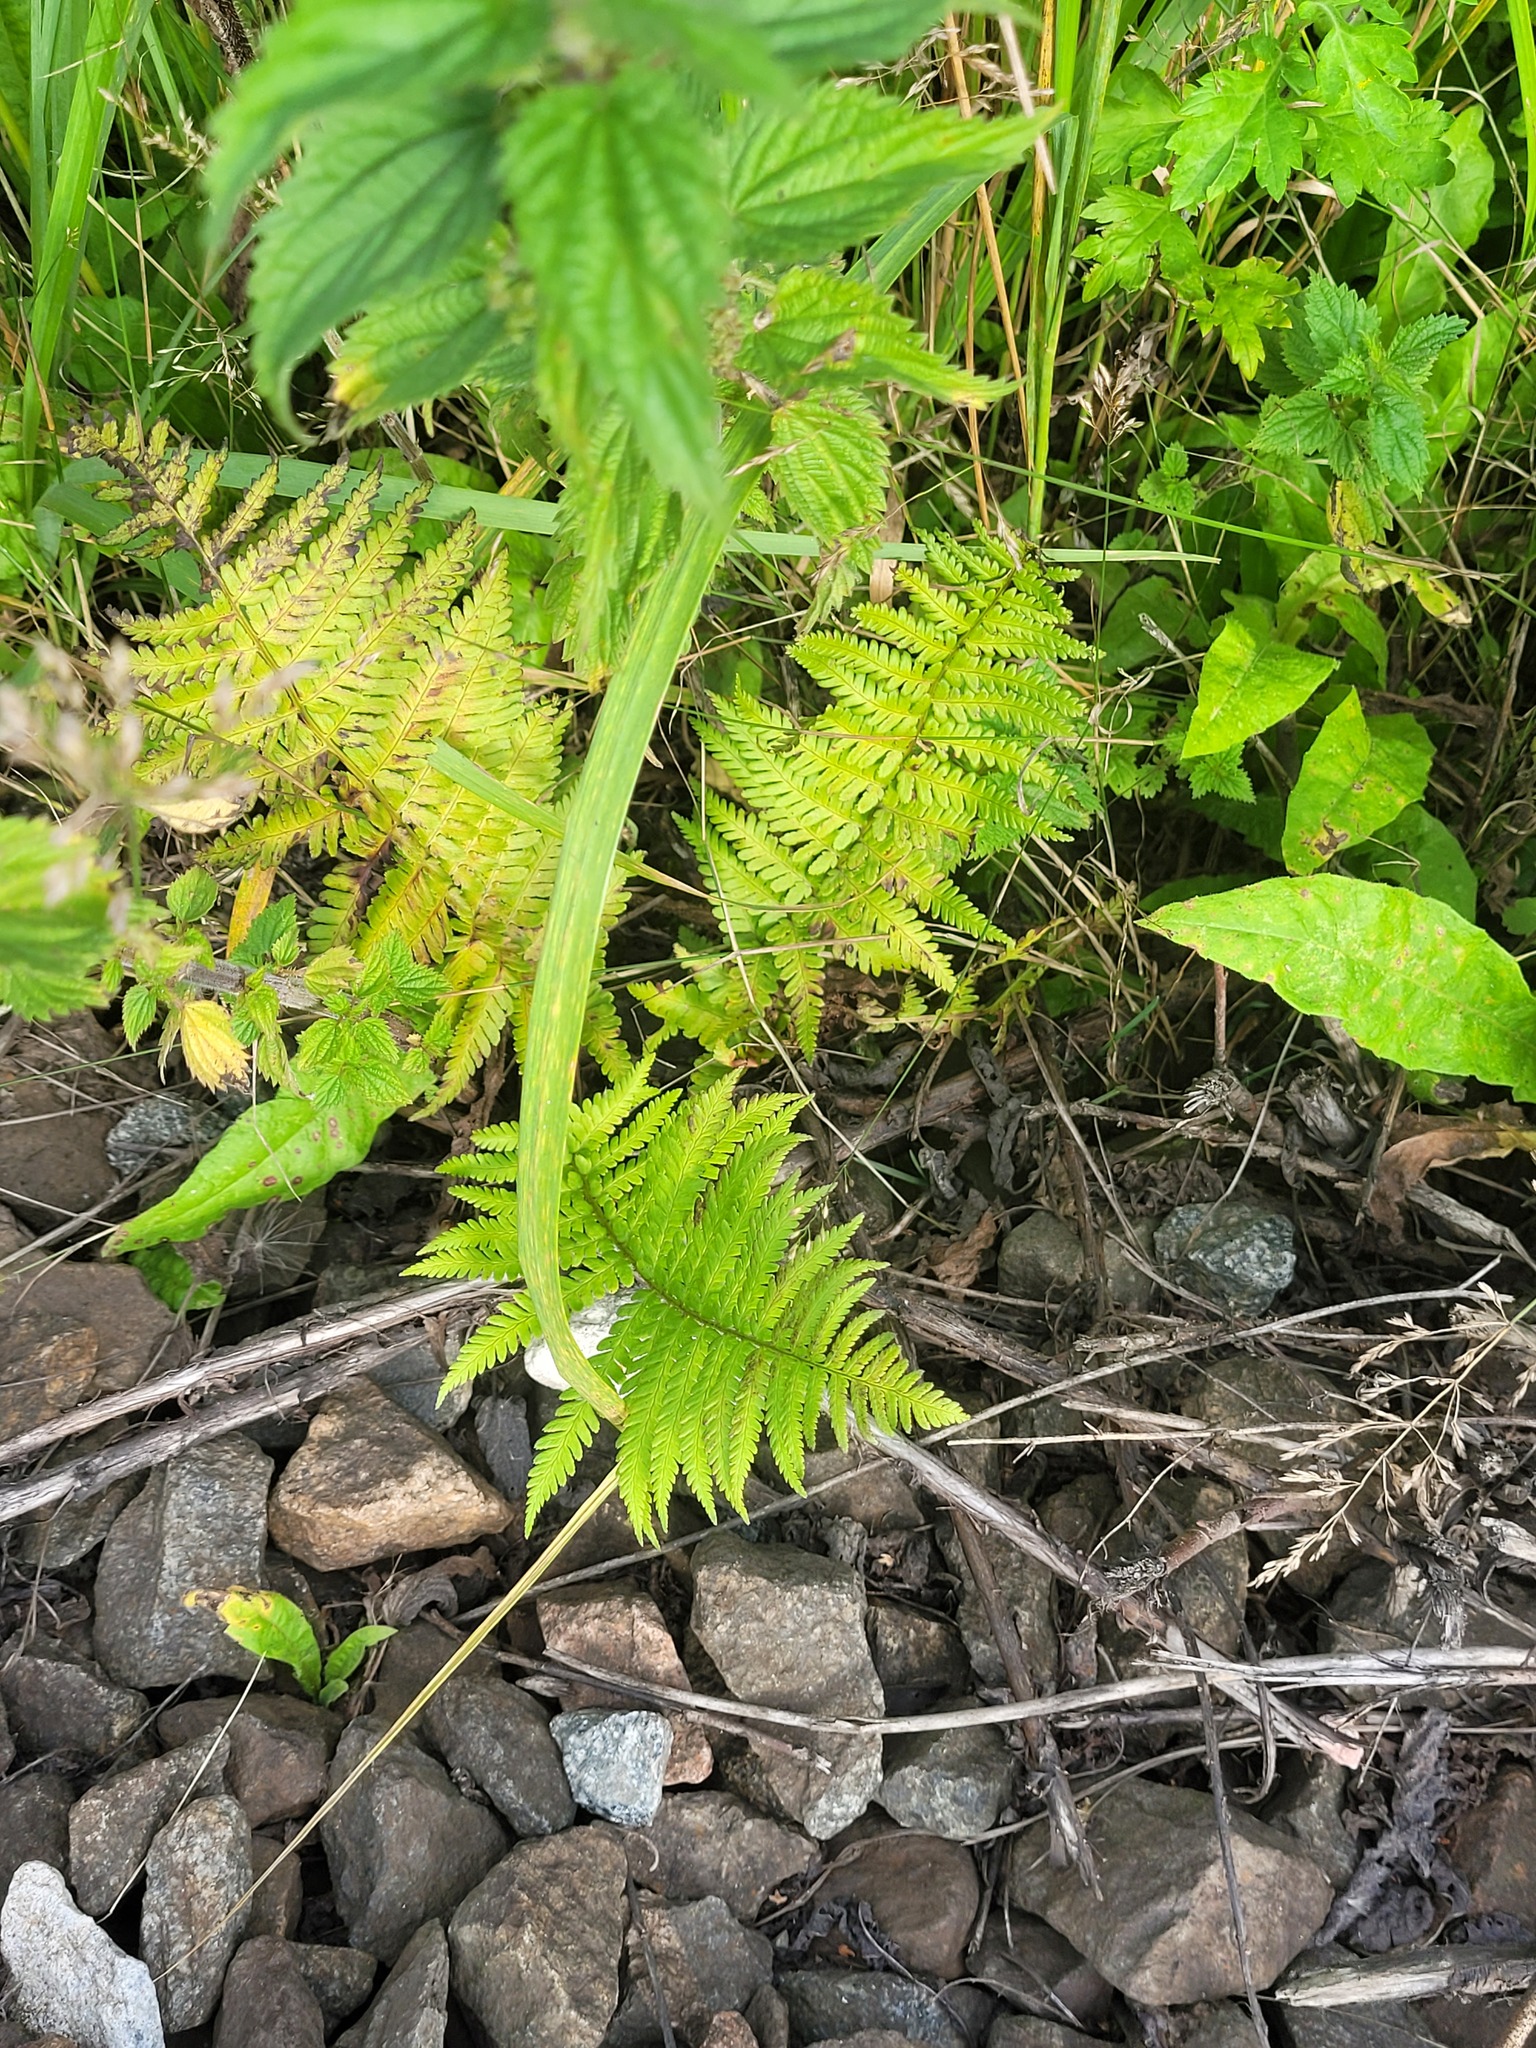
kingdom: Plantae
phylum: Tracheophyta
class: Polypodiopsida
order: Polypodiales
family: Dryopteridaceae
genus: Dryopteris
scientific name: Dryopteris filix-mas
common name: Male fern
